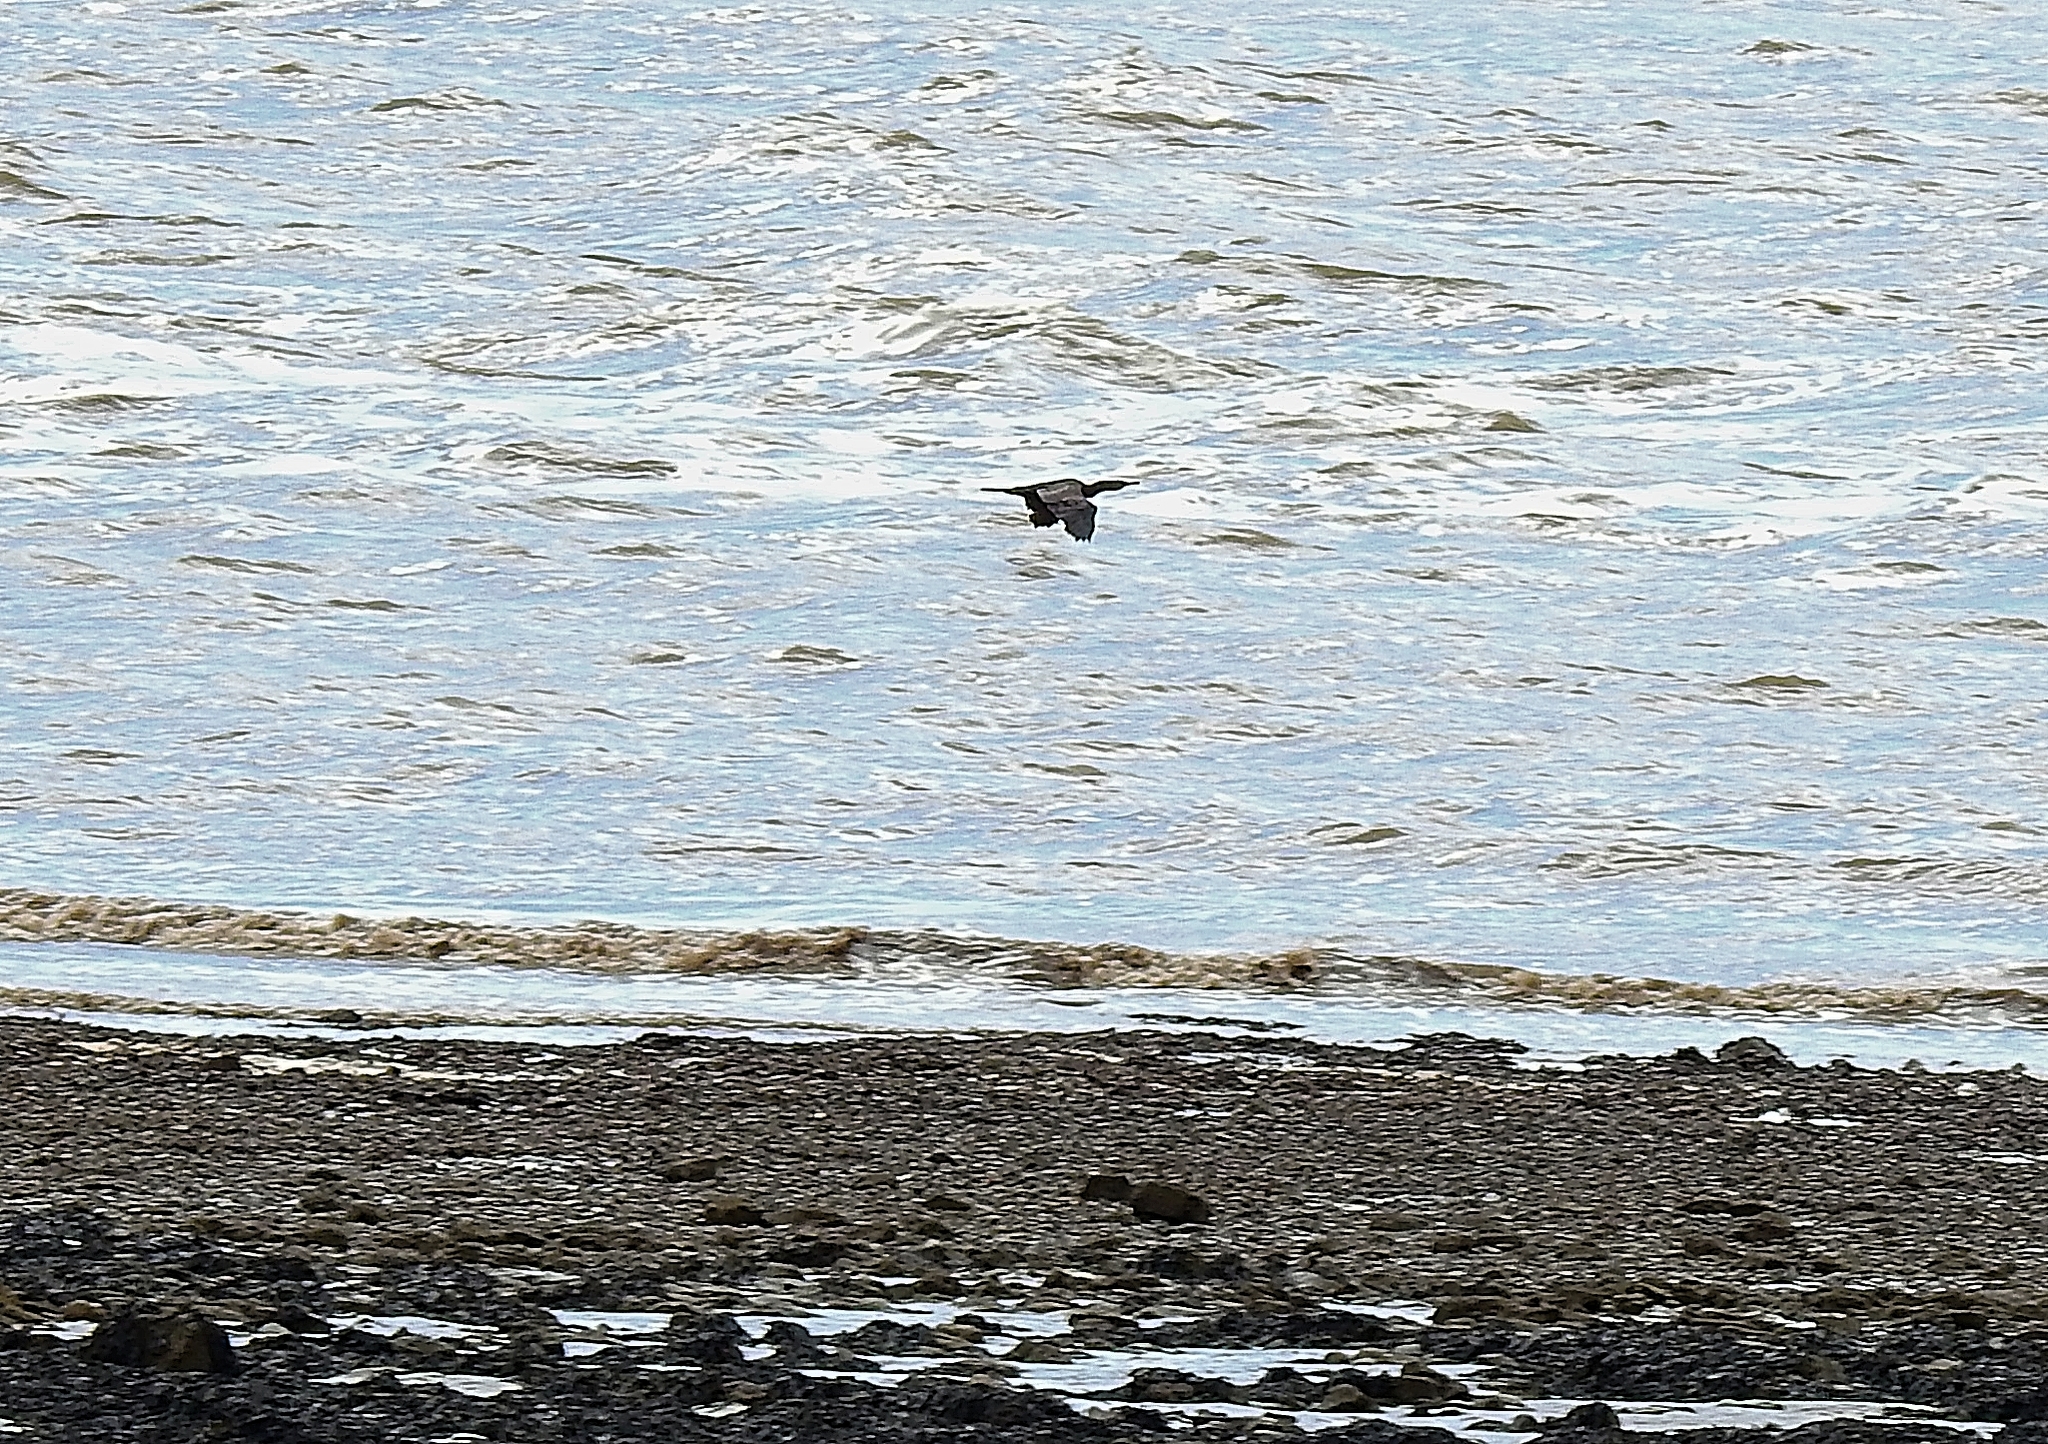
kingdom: Animalia
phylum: Chordata
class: Aves
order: Suliformes
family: Phalacrocoracidae
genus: Phalacrocorax
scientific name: Phalacrocorax carbo
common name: Great cormorant
